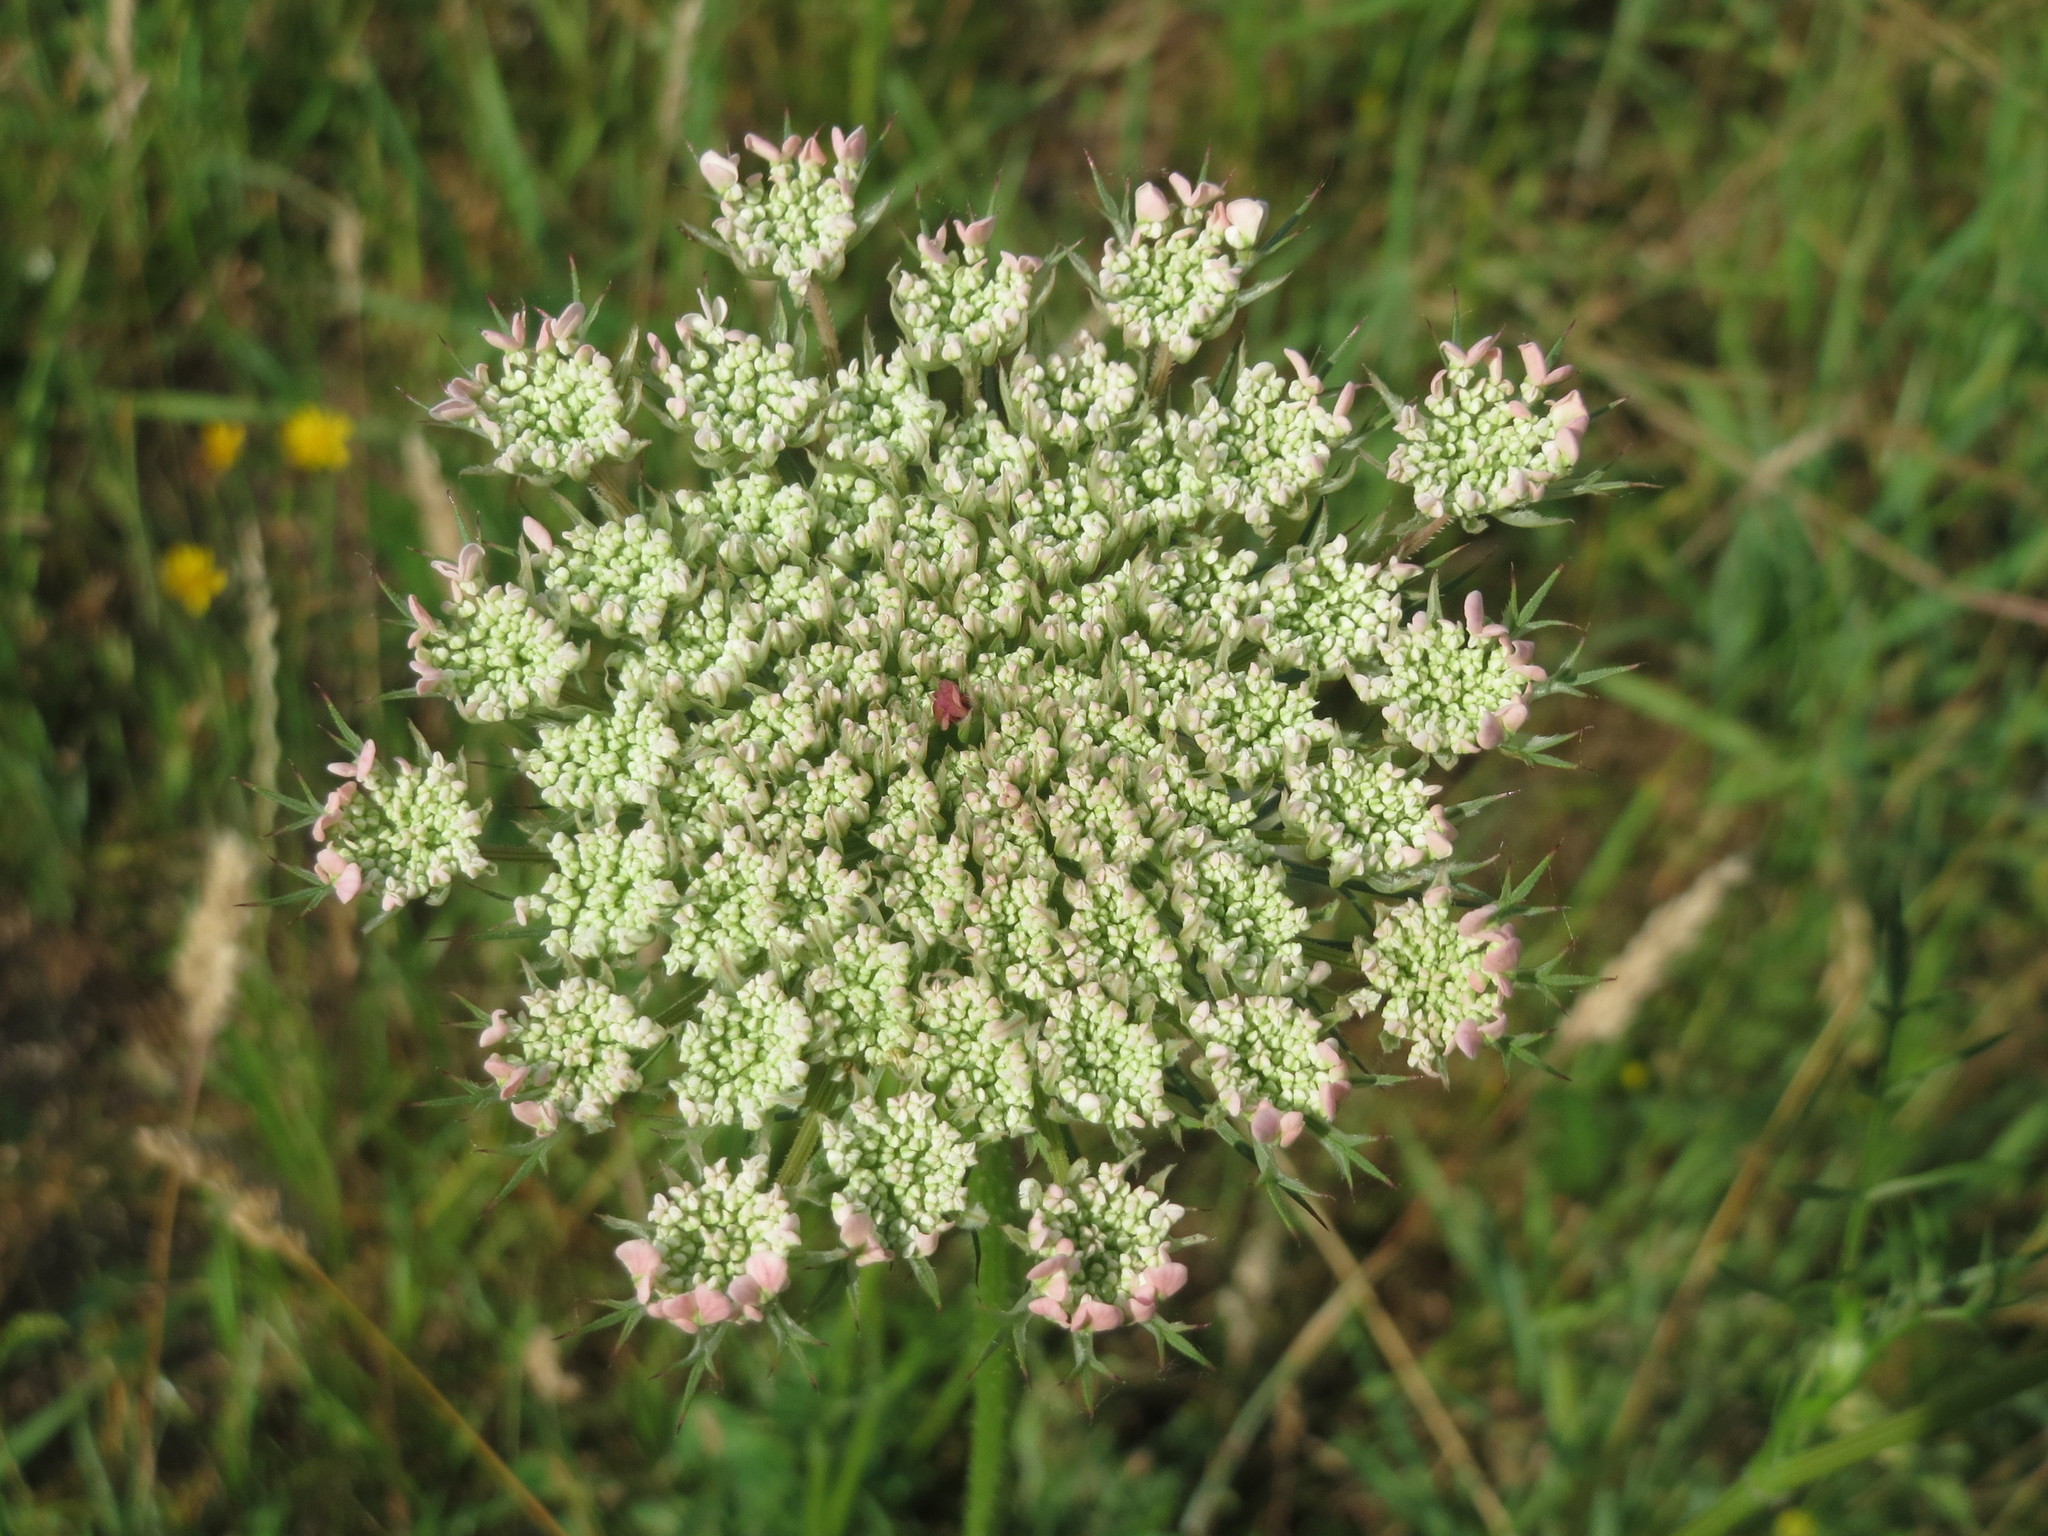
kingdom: Plantae
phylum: Tracheophyta
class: Magnoliopsida
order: Apiales
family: Apiaceae
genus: Daucus
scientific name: Daucus carota
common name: Wild carrot
